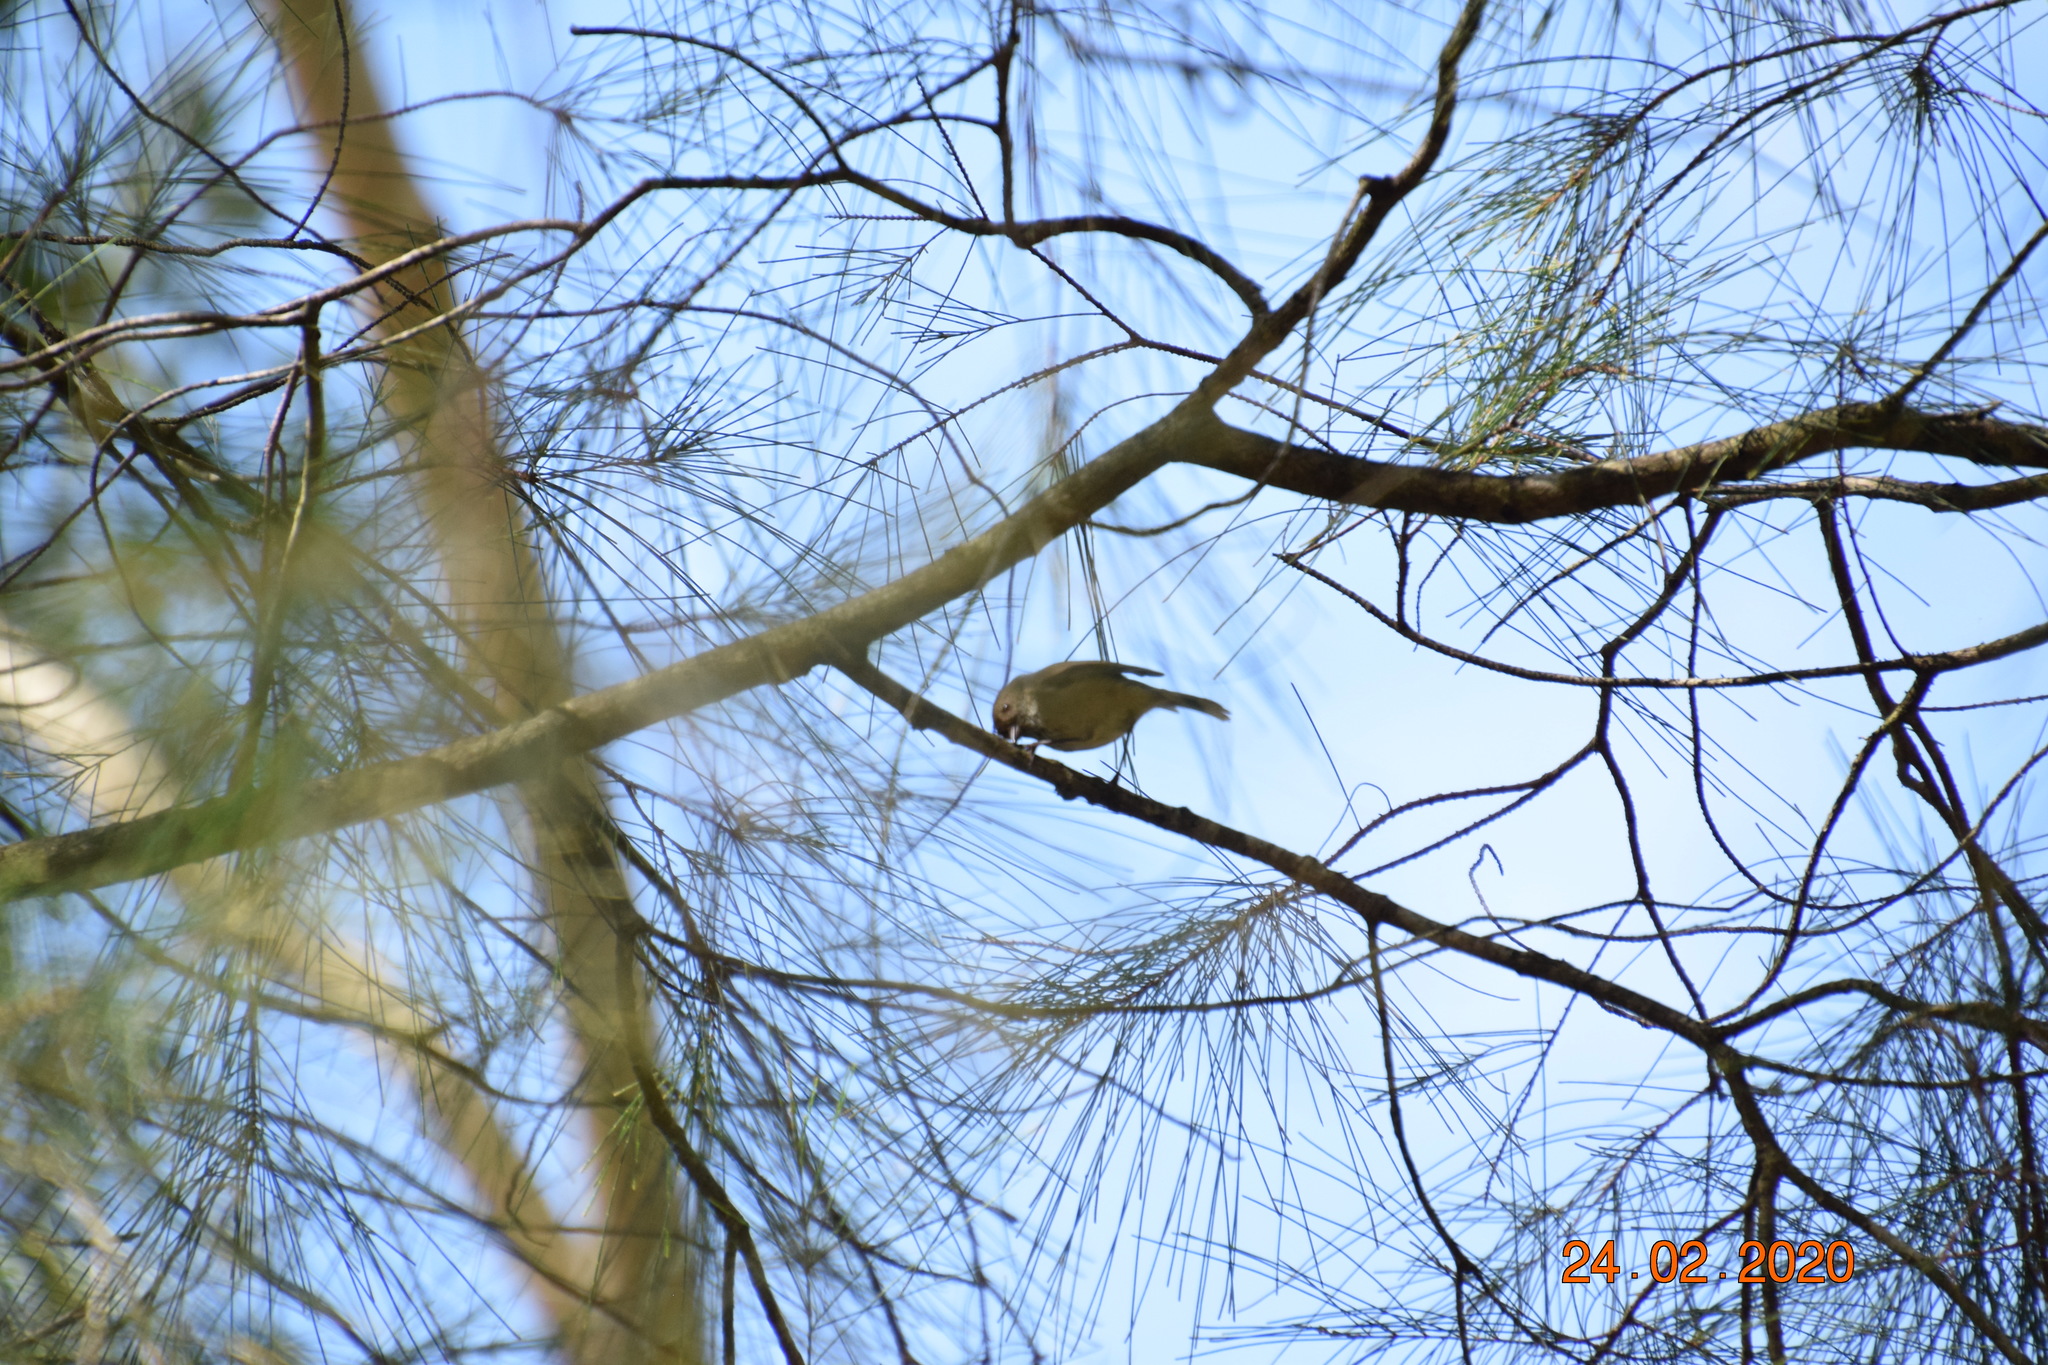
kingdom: Animalia
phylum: Chordata
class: Aves
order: Passeriformes
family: Acanthizidae
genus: Acanthiza
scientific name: Acanthiza pusilla
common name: Brown thornbill
